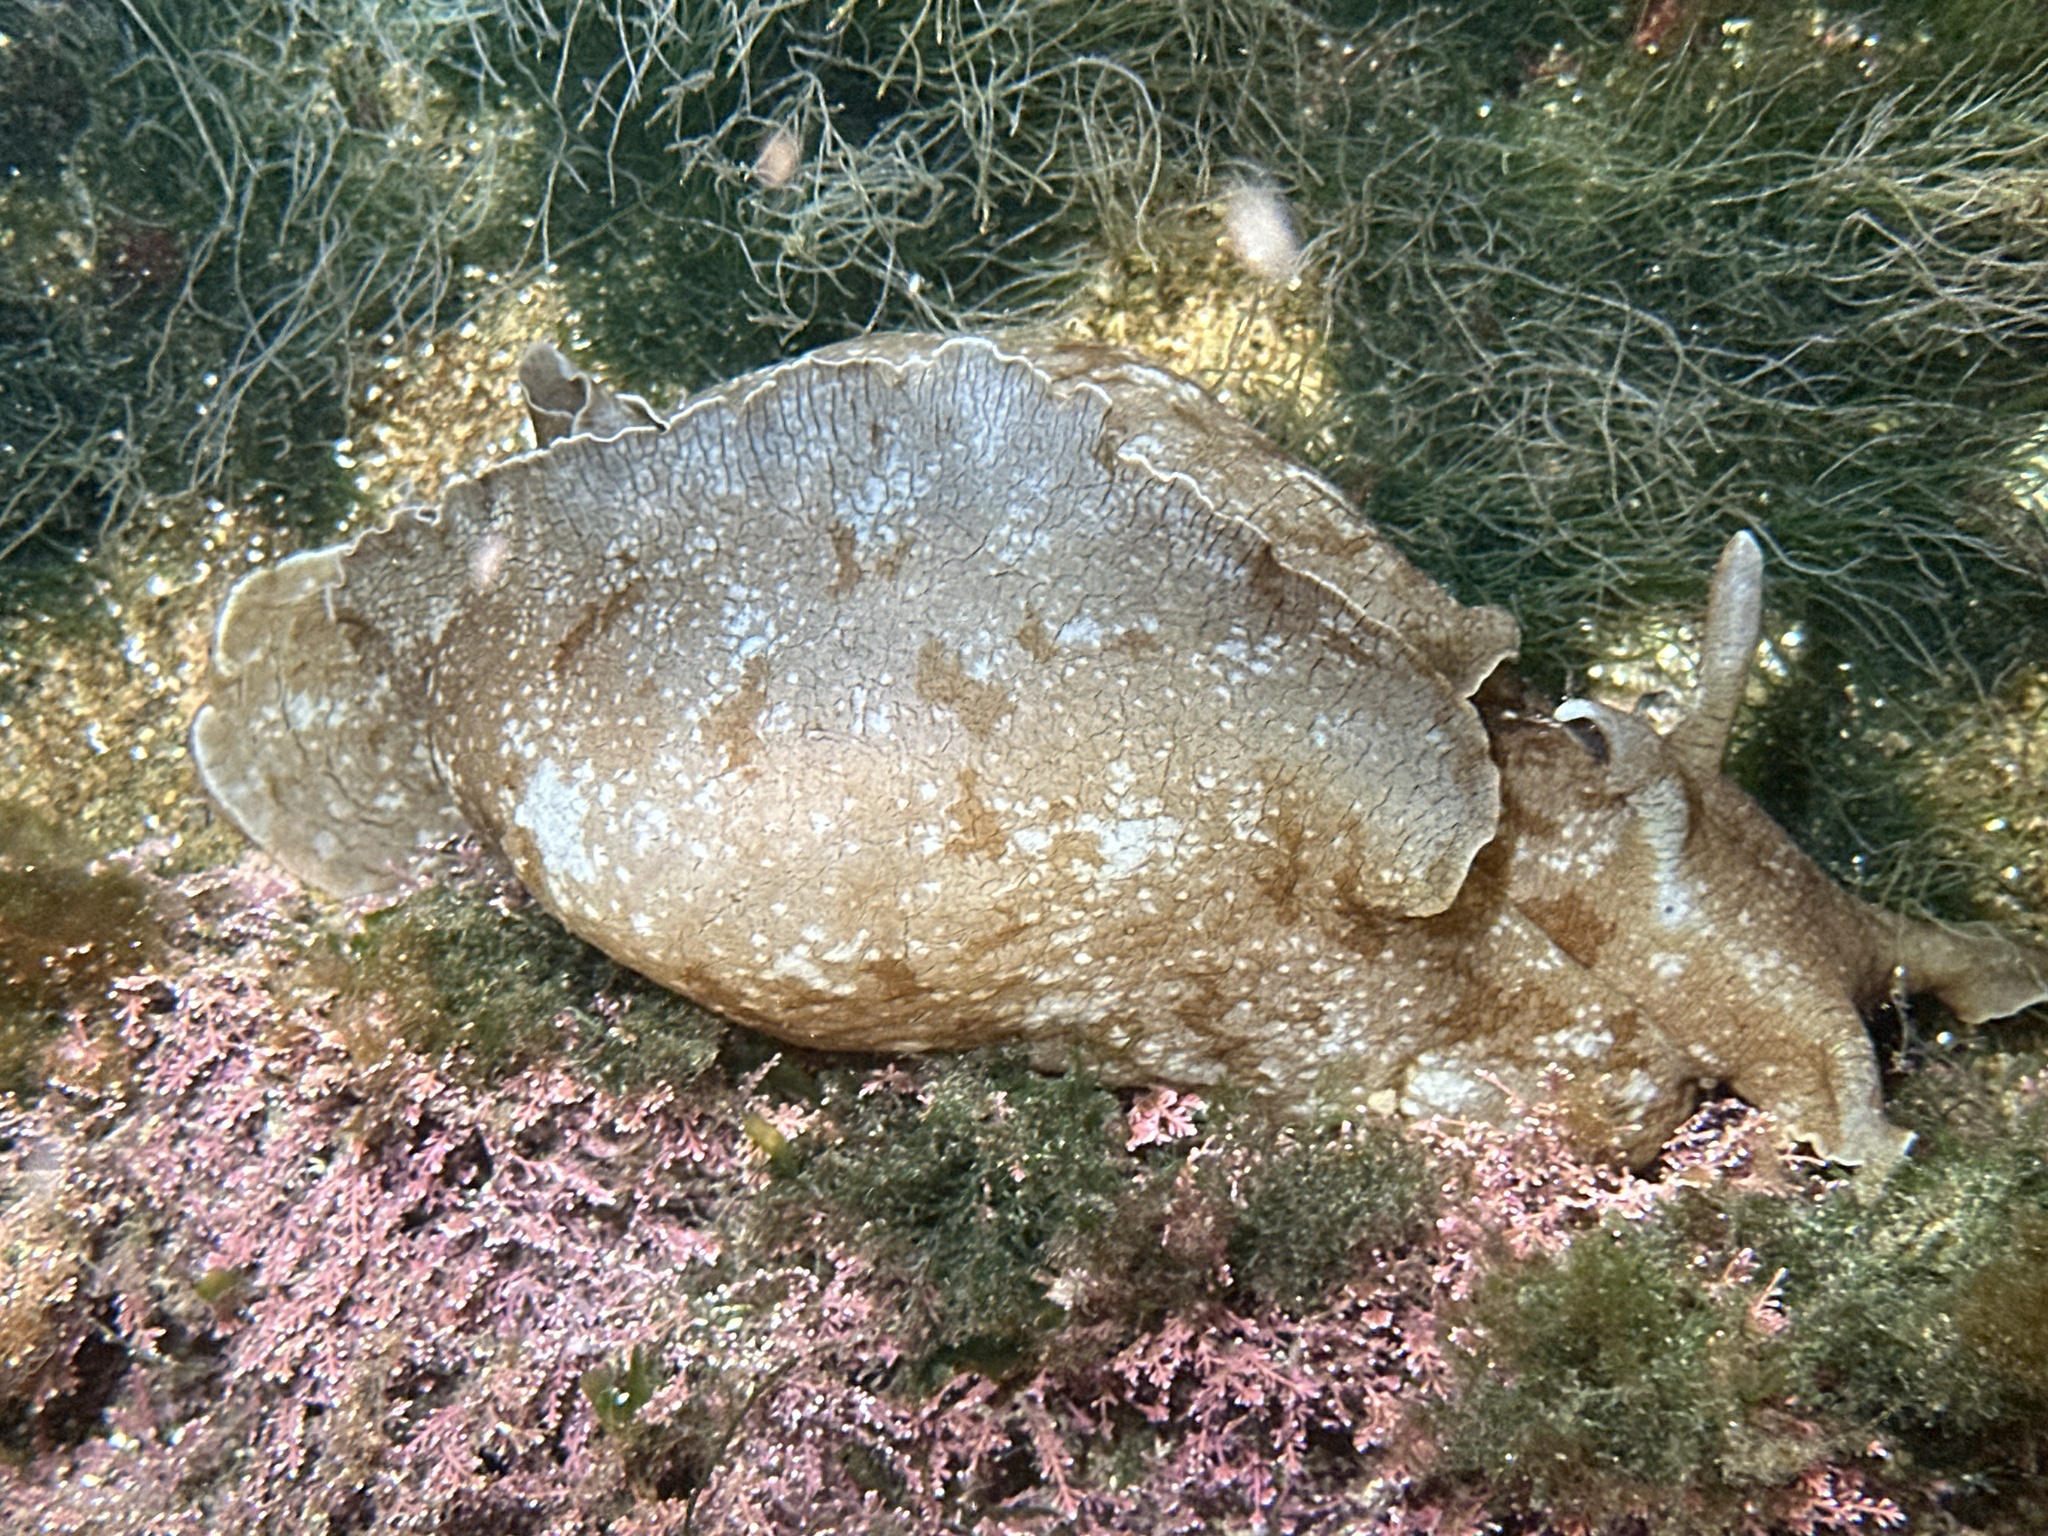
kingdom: Animalia
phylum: Mollusca
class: Gastropoda
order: Aplysiida
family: Aplysiidae
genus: Aplysia
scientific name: Aplysia sydneyensis
